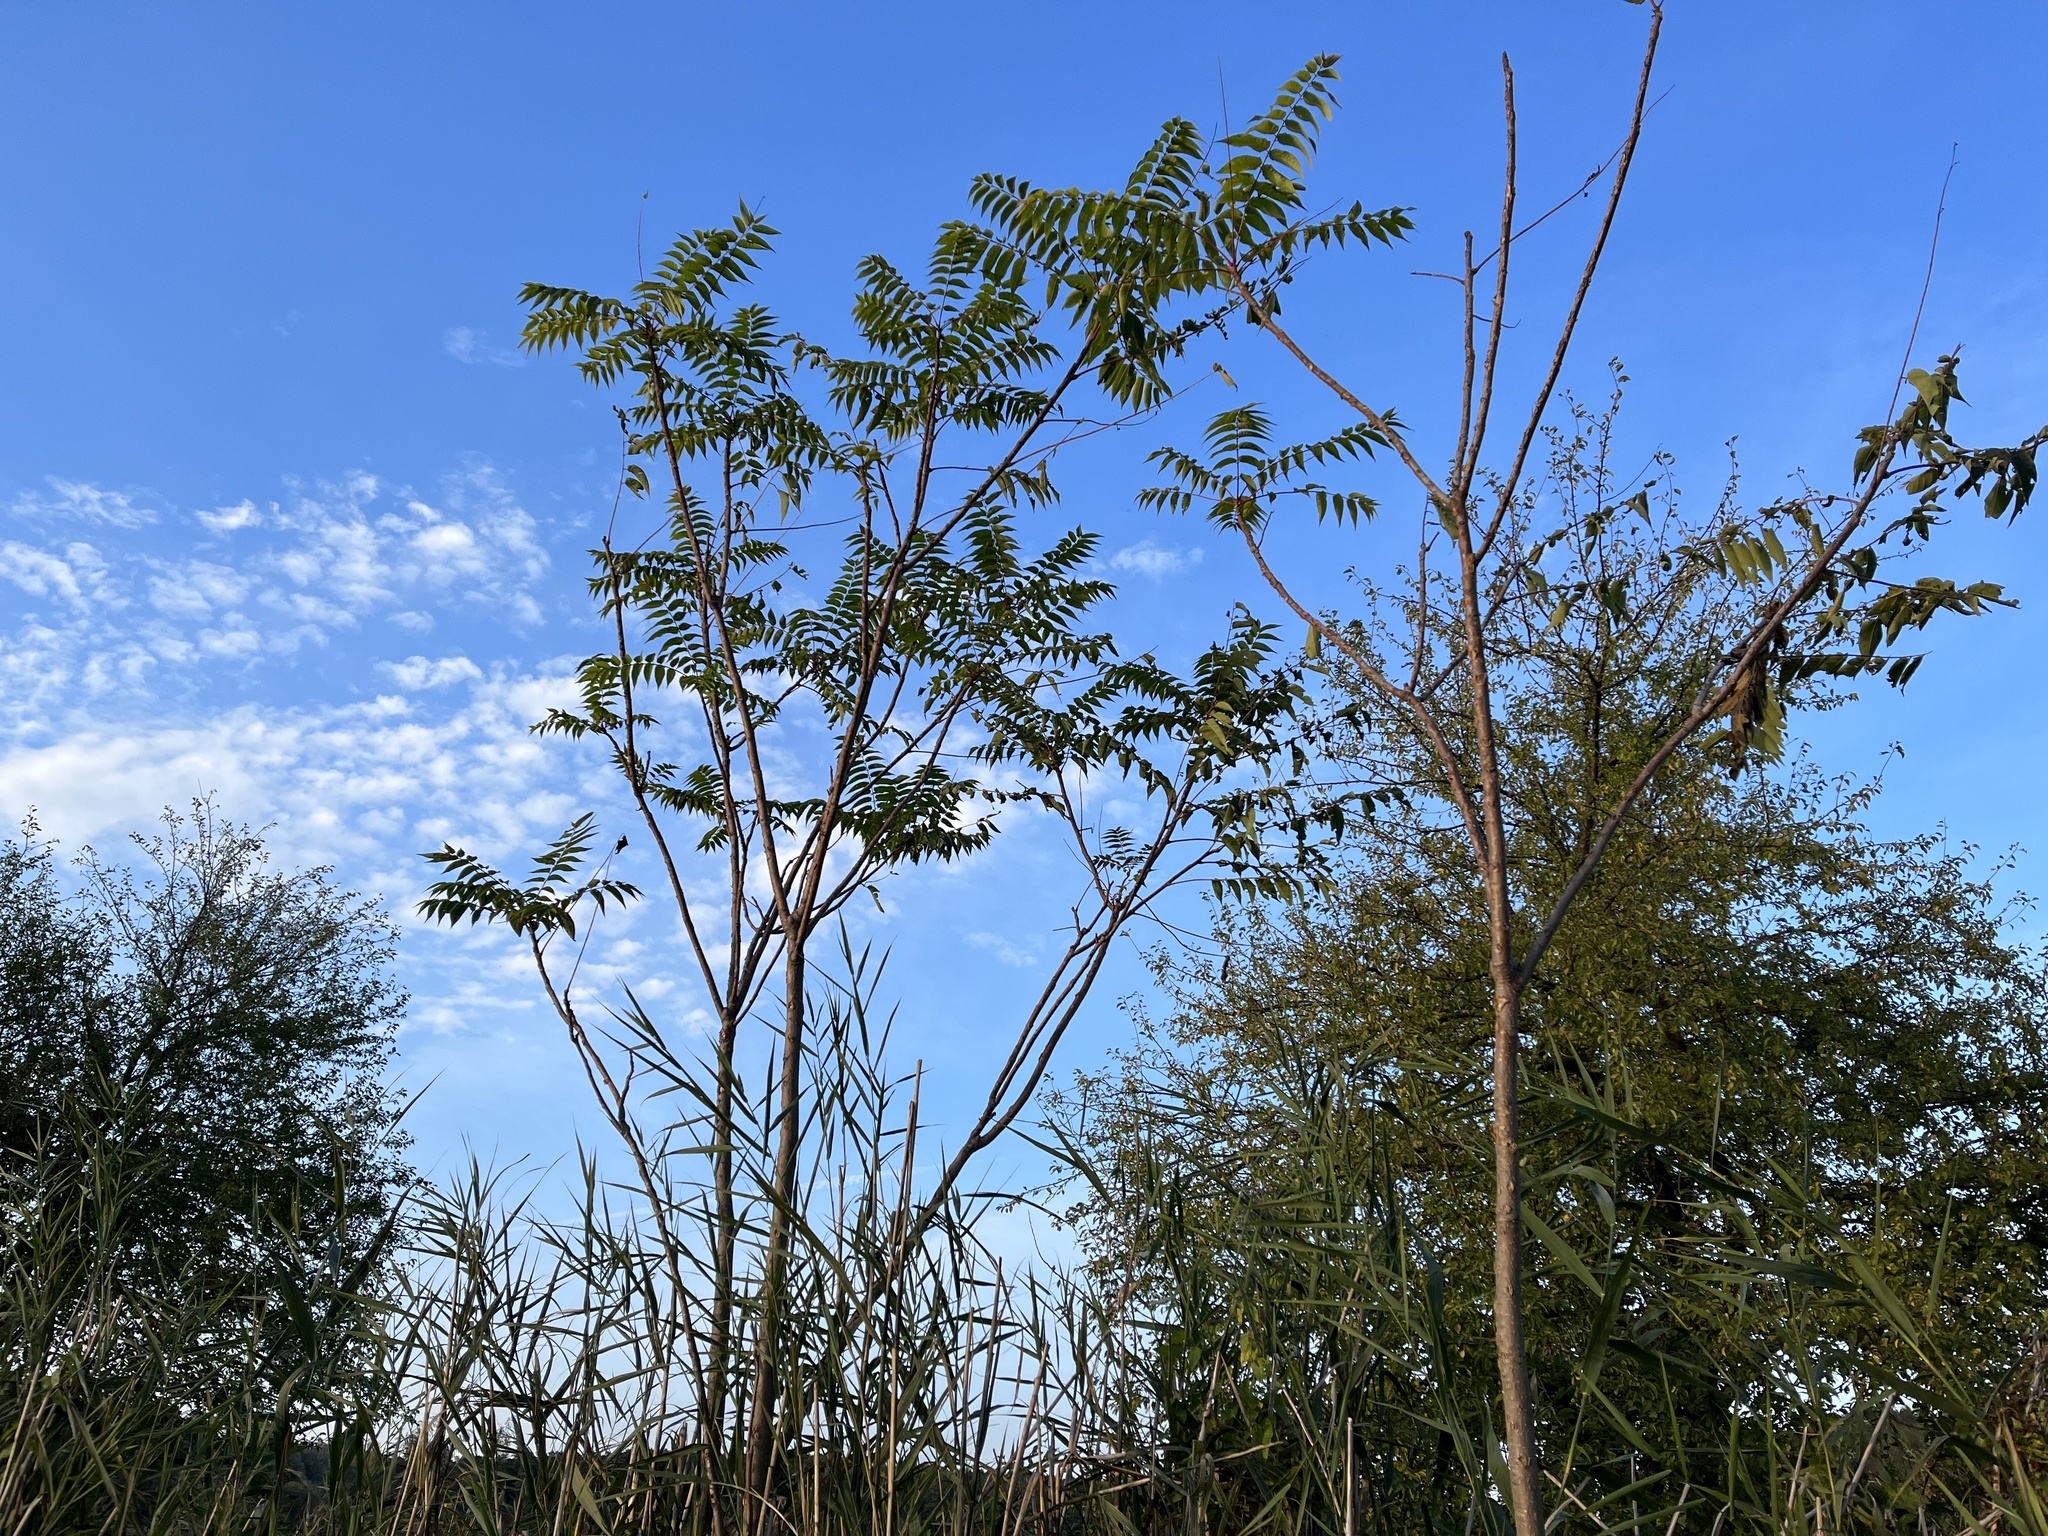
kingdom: Plantae
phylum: Tracheophyta
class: Magnoliopsida
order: Sapindales
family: Simaroubaceae
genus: Ailanthus
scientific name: Ailanthus altissima
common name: Tree-of-heaven
